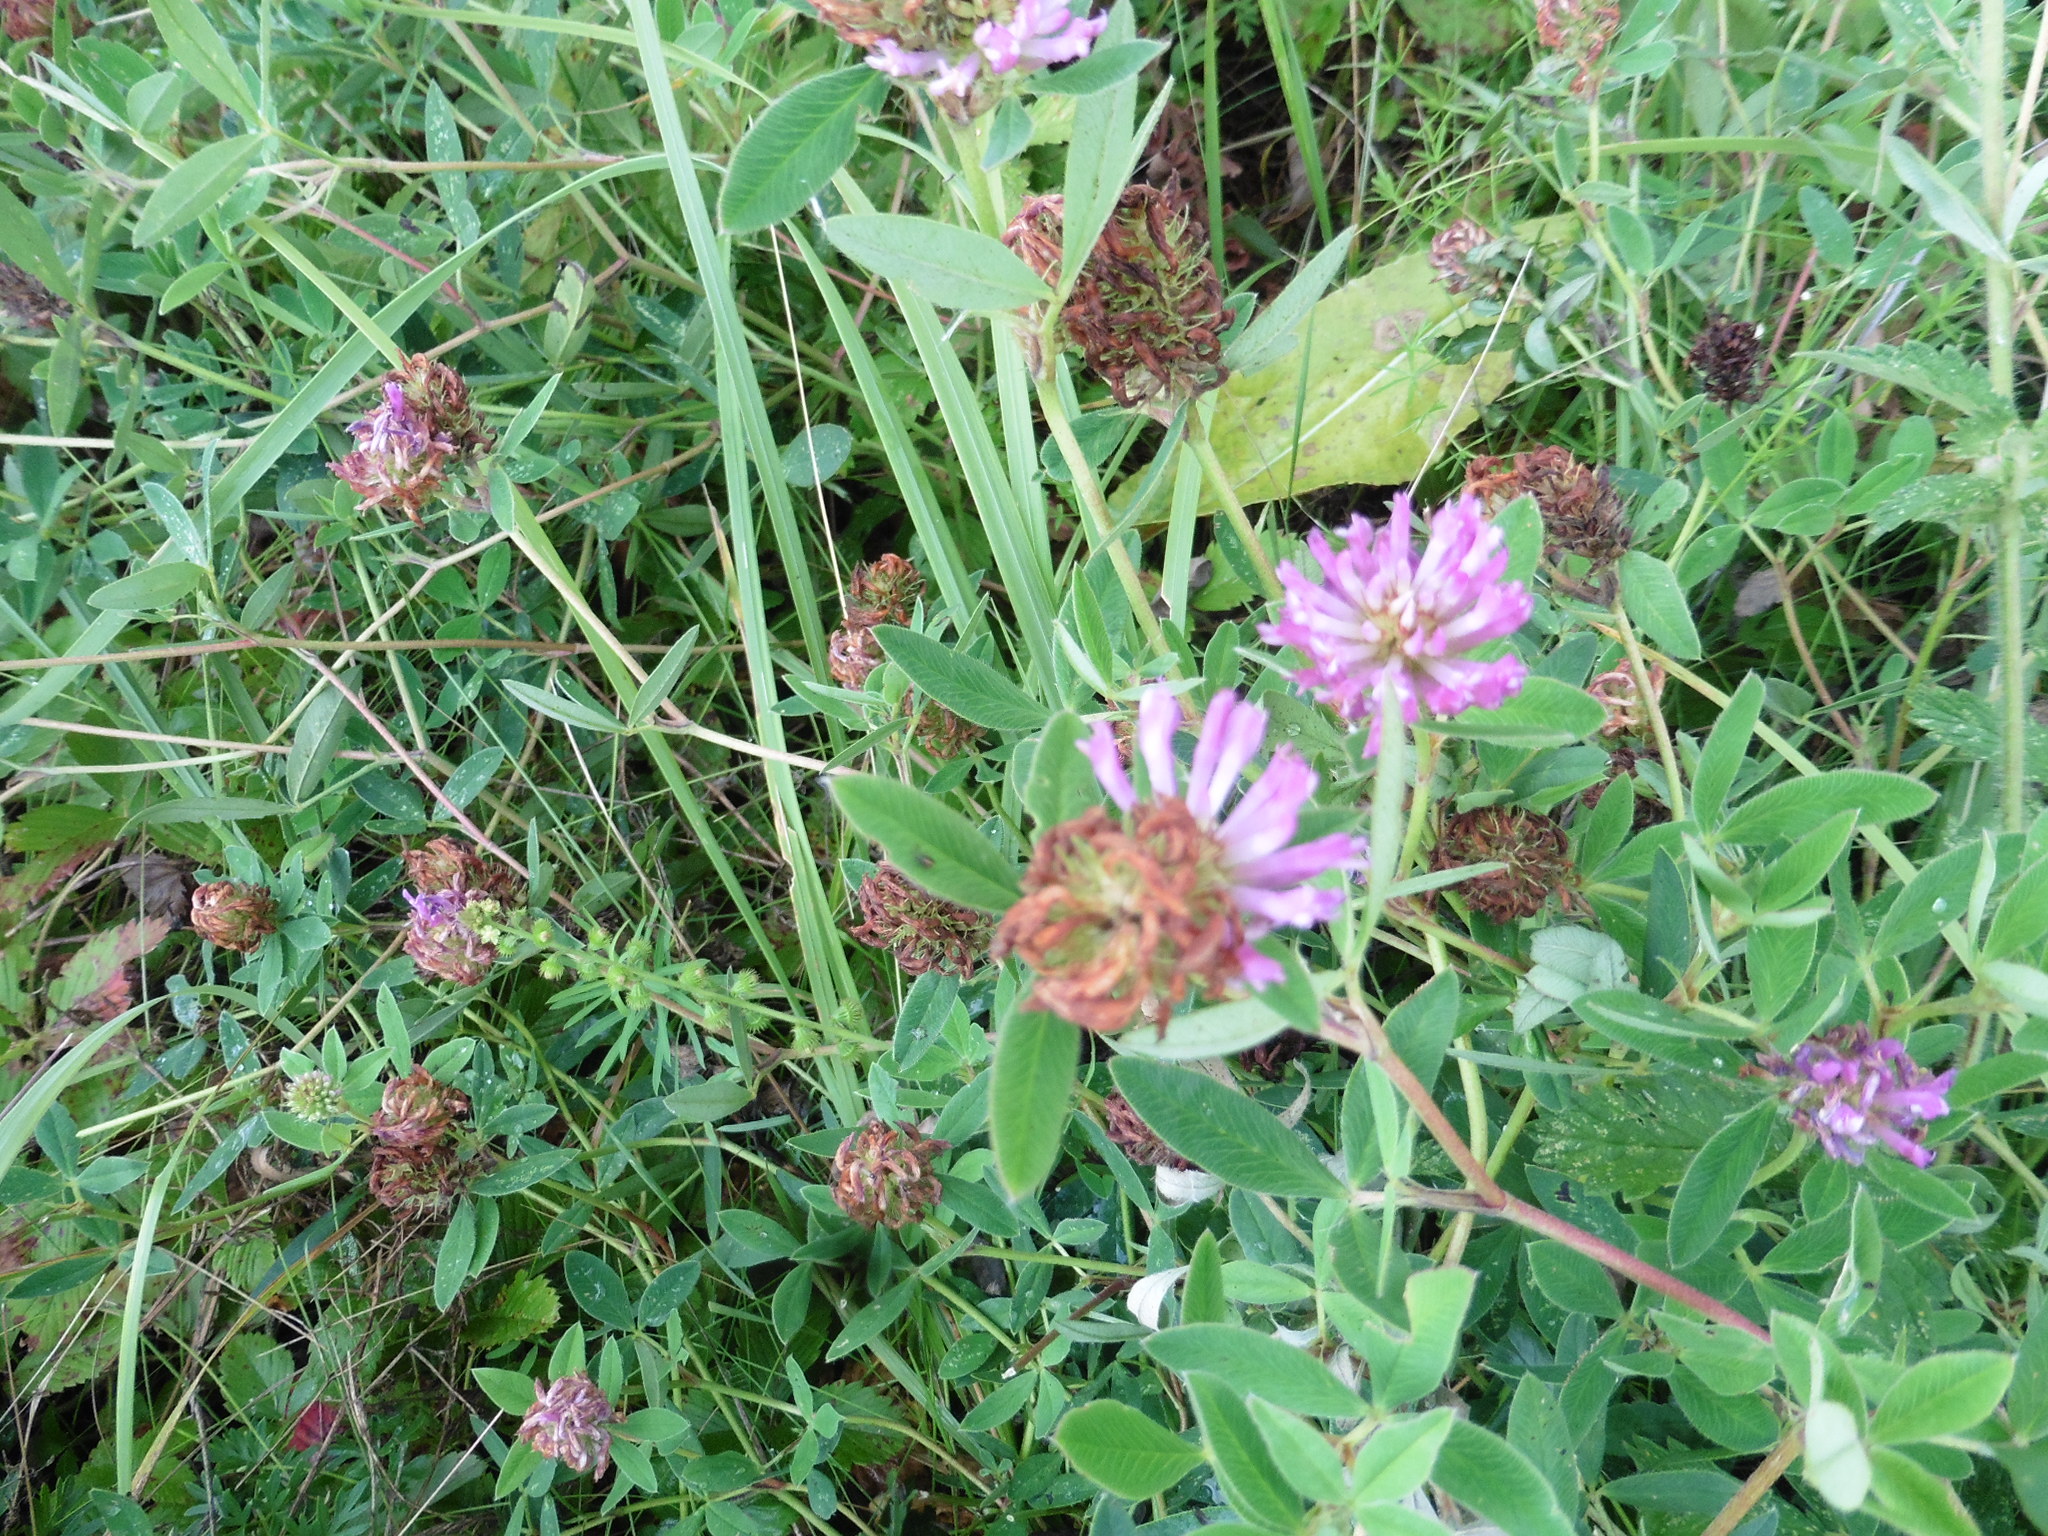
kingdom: Plantae
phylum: Tracheophyta
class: Magnoliopsida
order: Fabales
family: Fabaceae
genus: Trifolium
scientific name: Trifolium medium
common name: Zigzag clover
